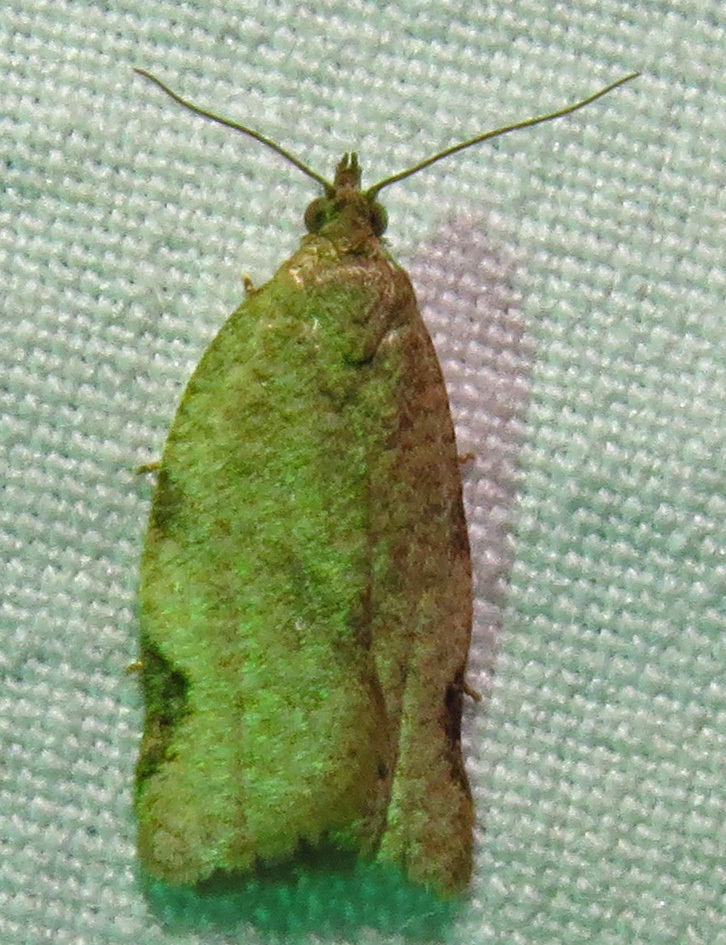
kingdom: Animalia
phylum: Arthropoda
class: Insecta
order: Lepidoptera
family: Tortricidae
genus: Clepsis
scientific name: Clepsis virescana
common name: Greenish apple moth
